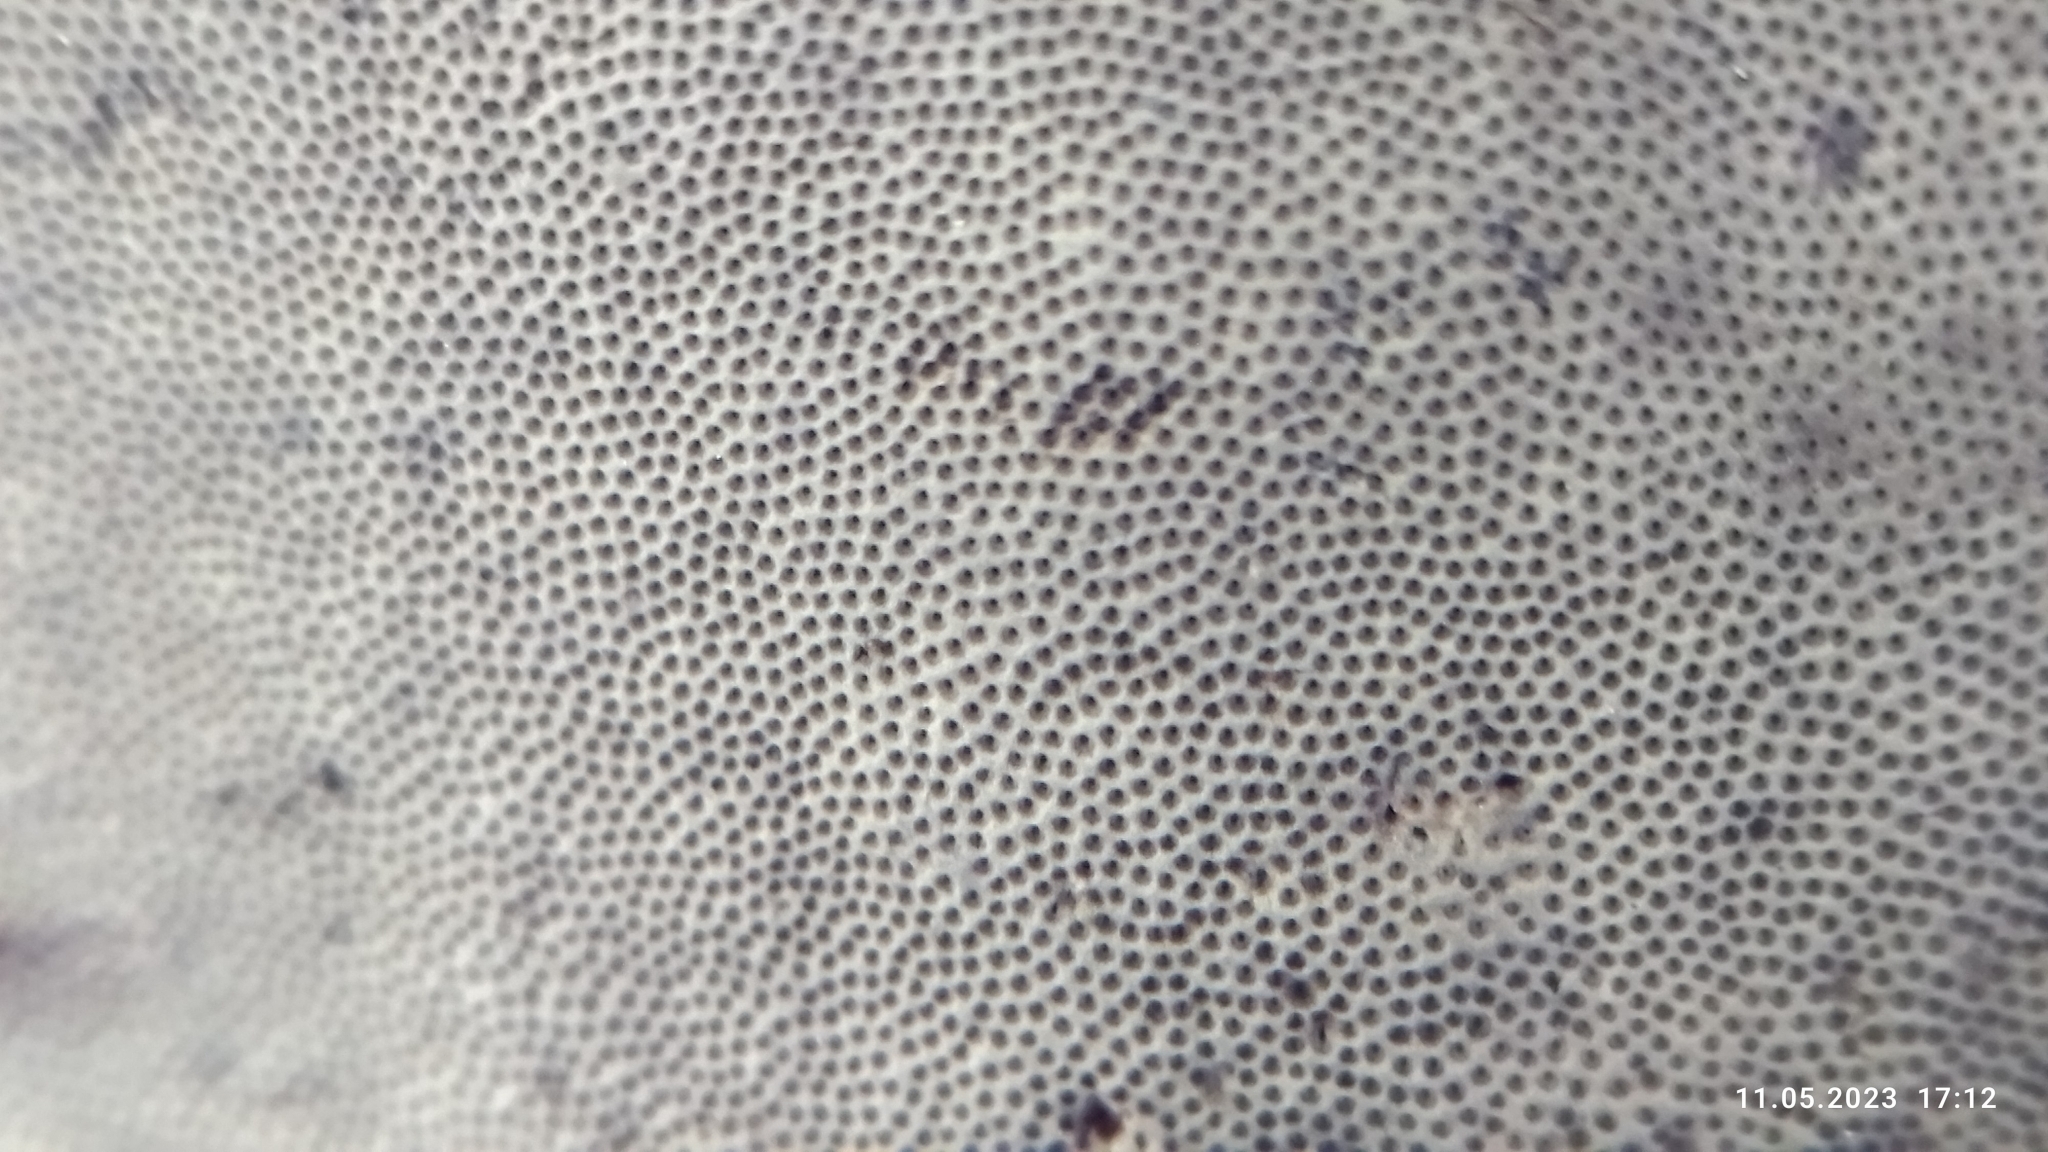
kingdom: Fungi
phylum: Basidiomycota
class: Agaricomycetes
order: Polyporales
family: Polyporaceae
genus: Fomes
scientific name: Fomes fomentarius
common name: Hoof fungus
